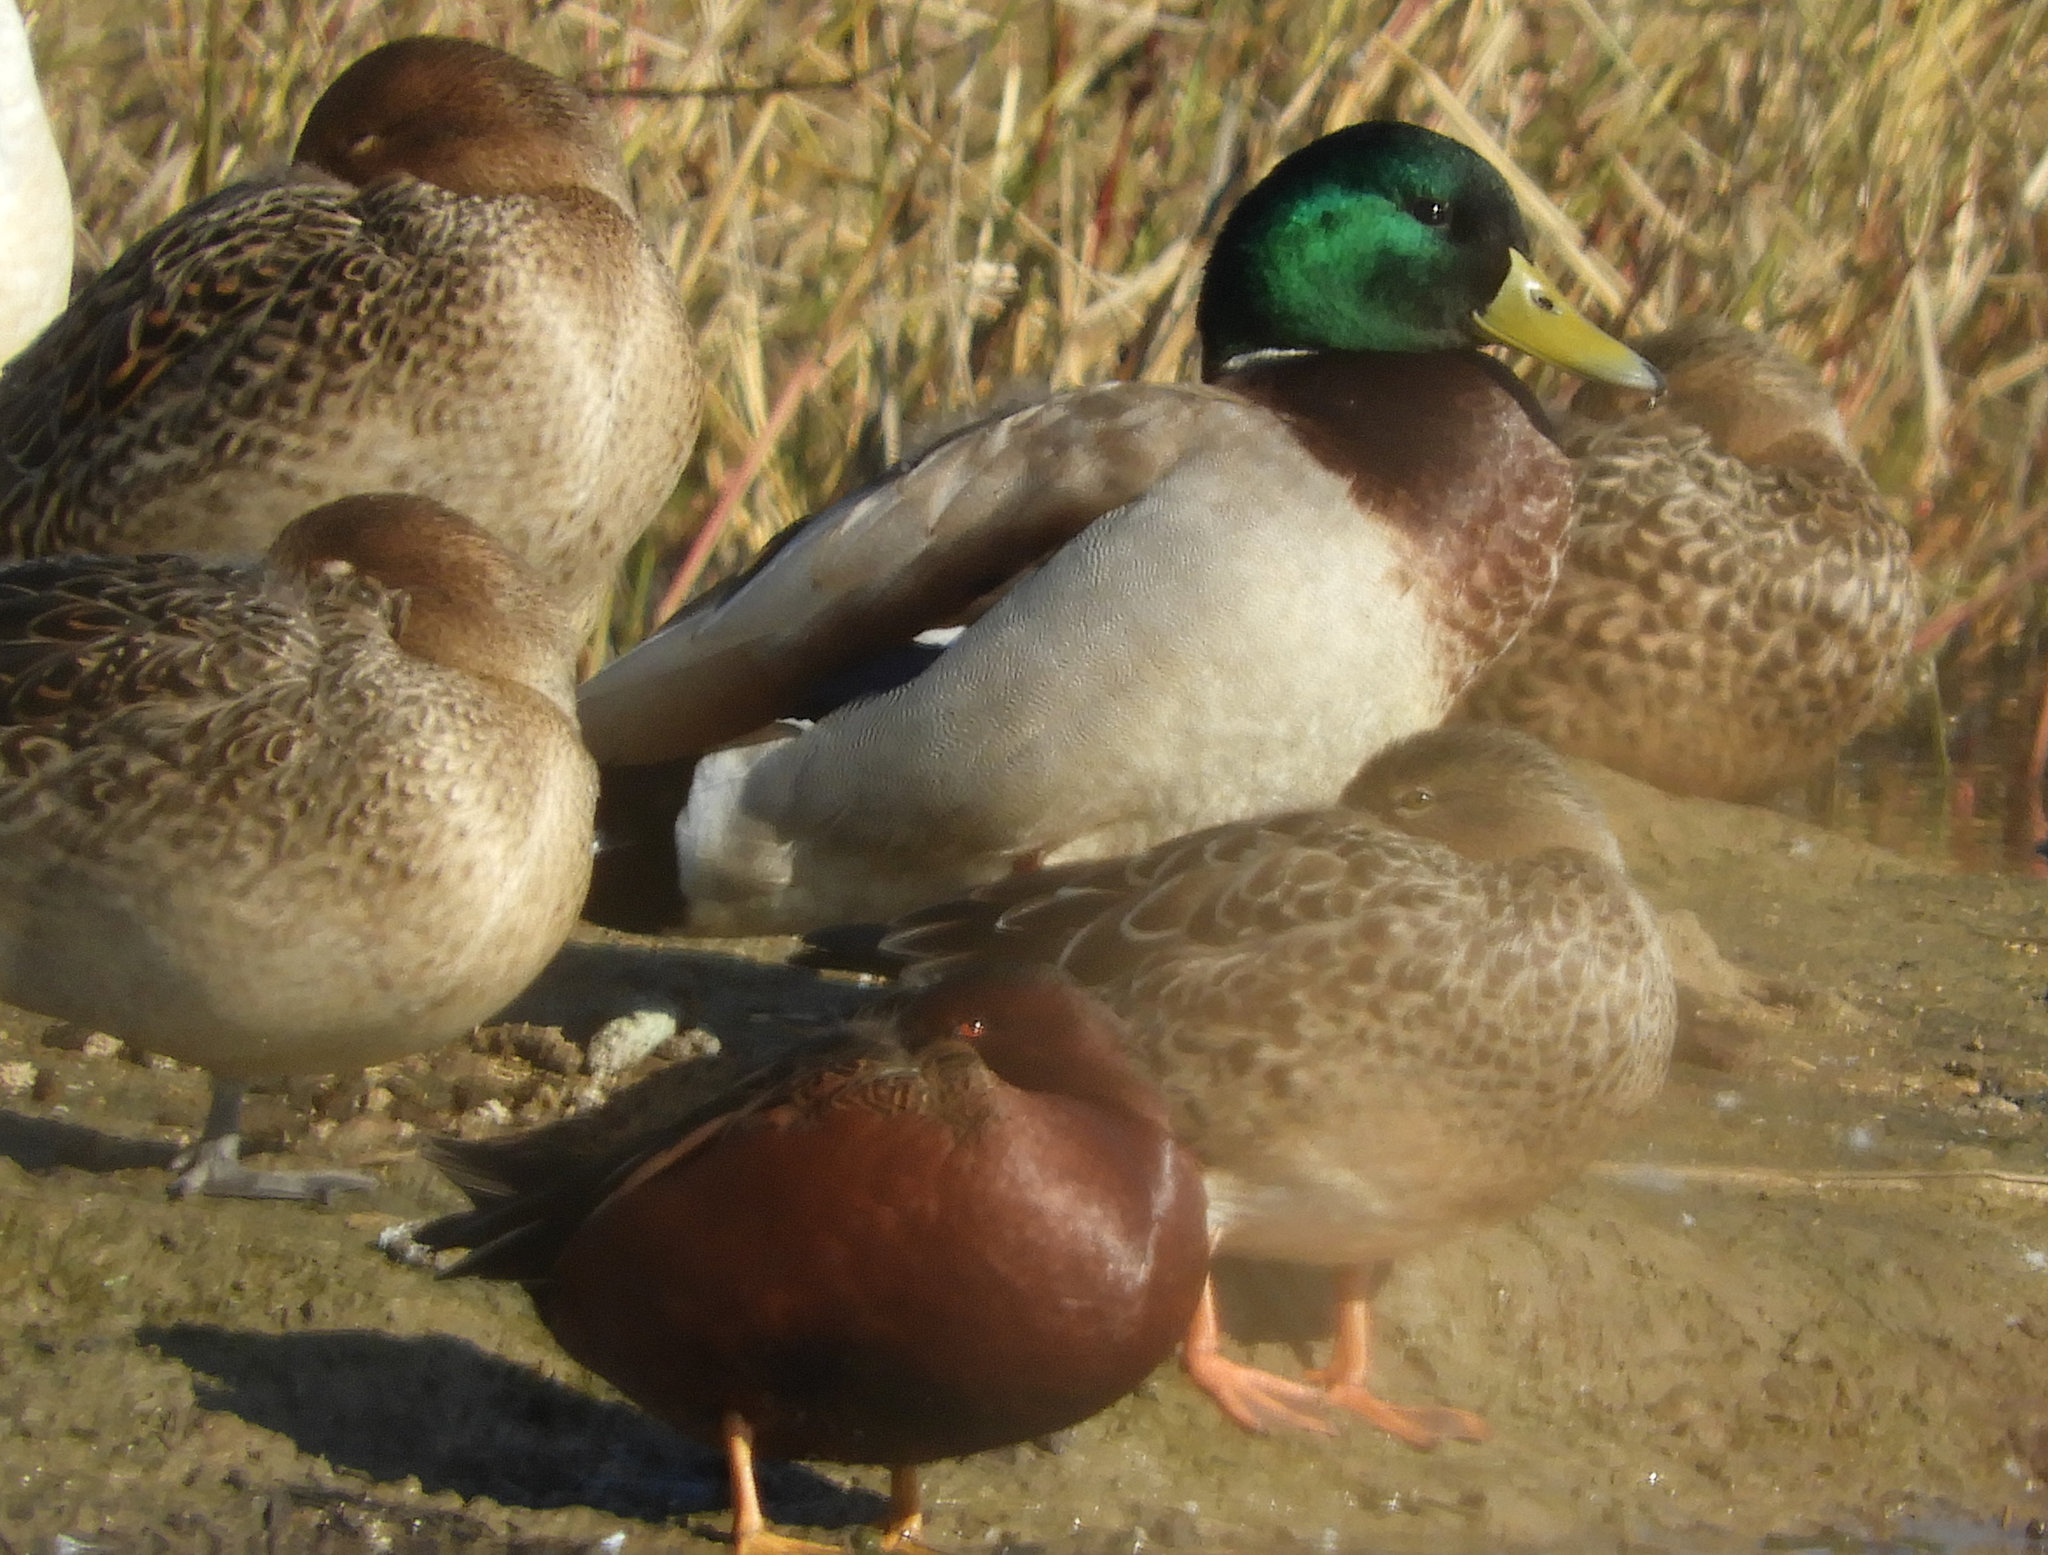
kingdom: Animalia
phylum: Chordata
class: Aves
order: Anseriformes
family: Anatidae
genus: Anas
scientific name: Anas platyrhynchos
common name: Mallard
